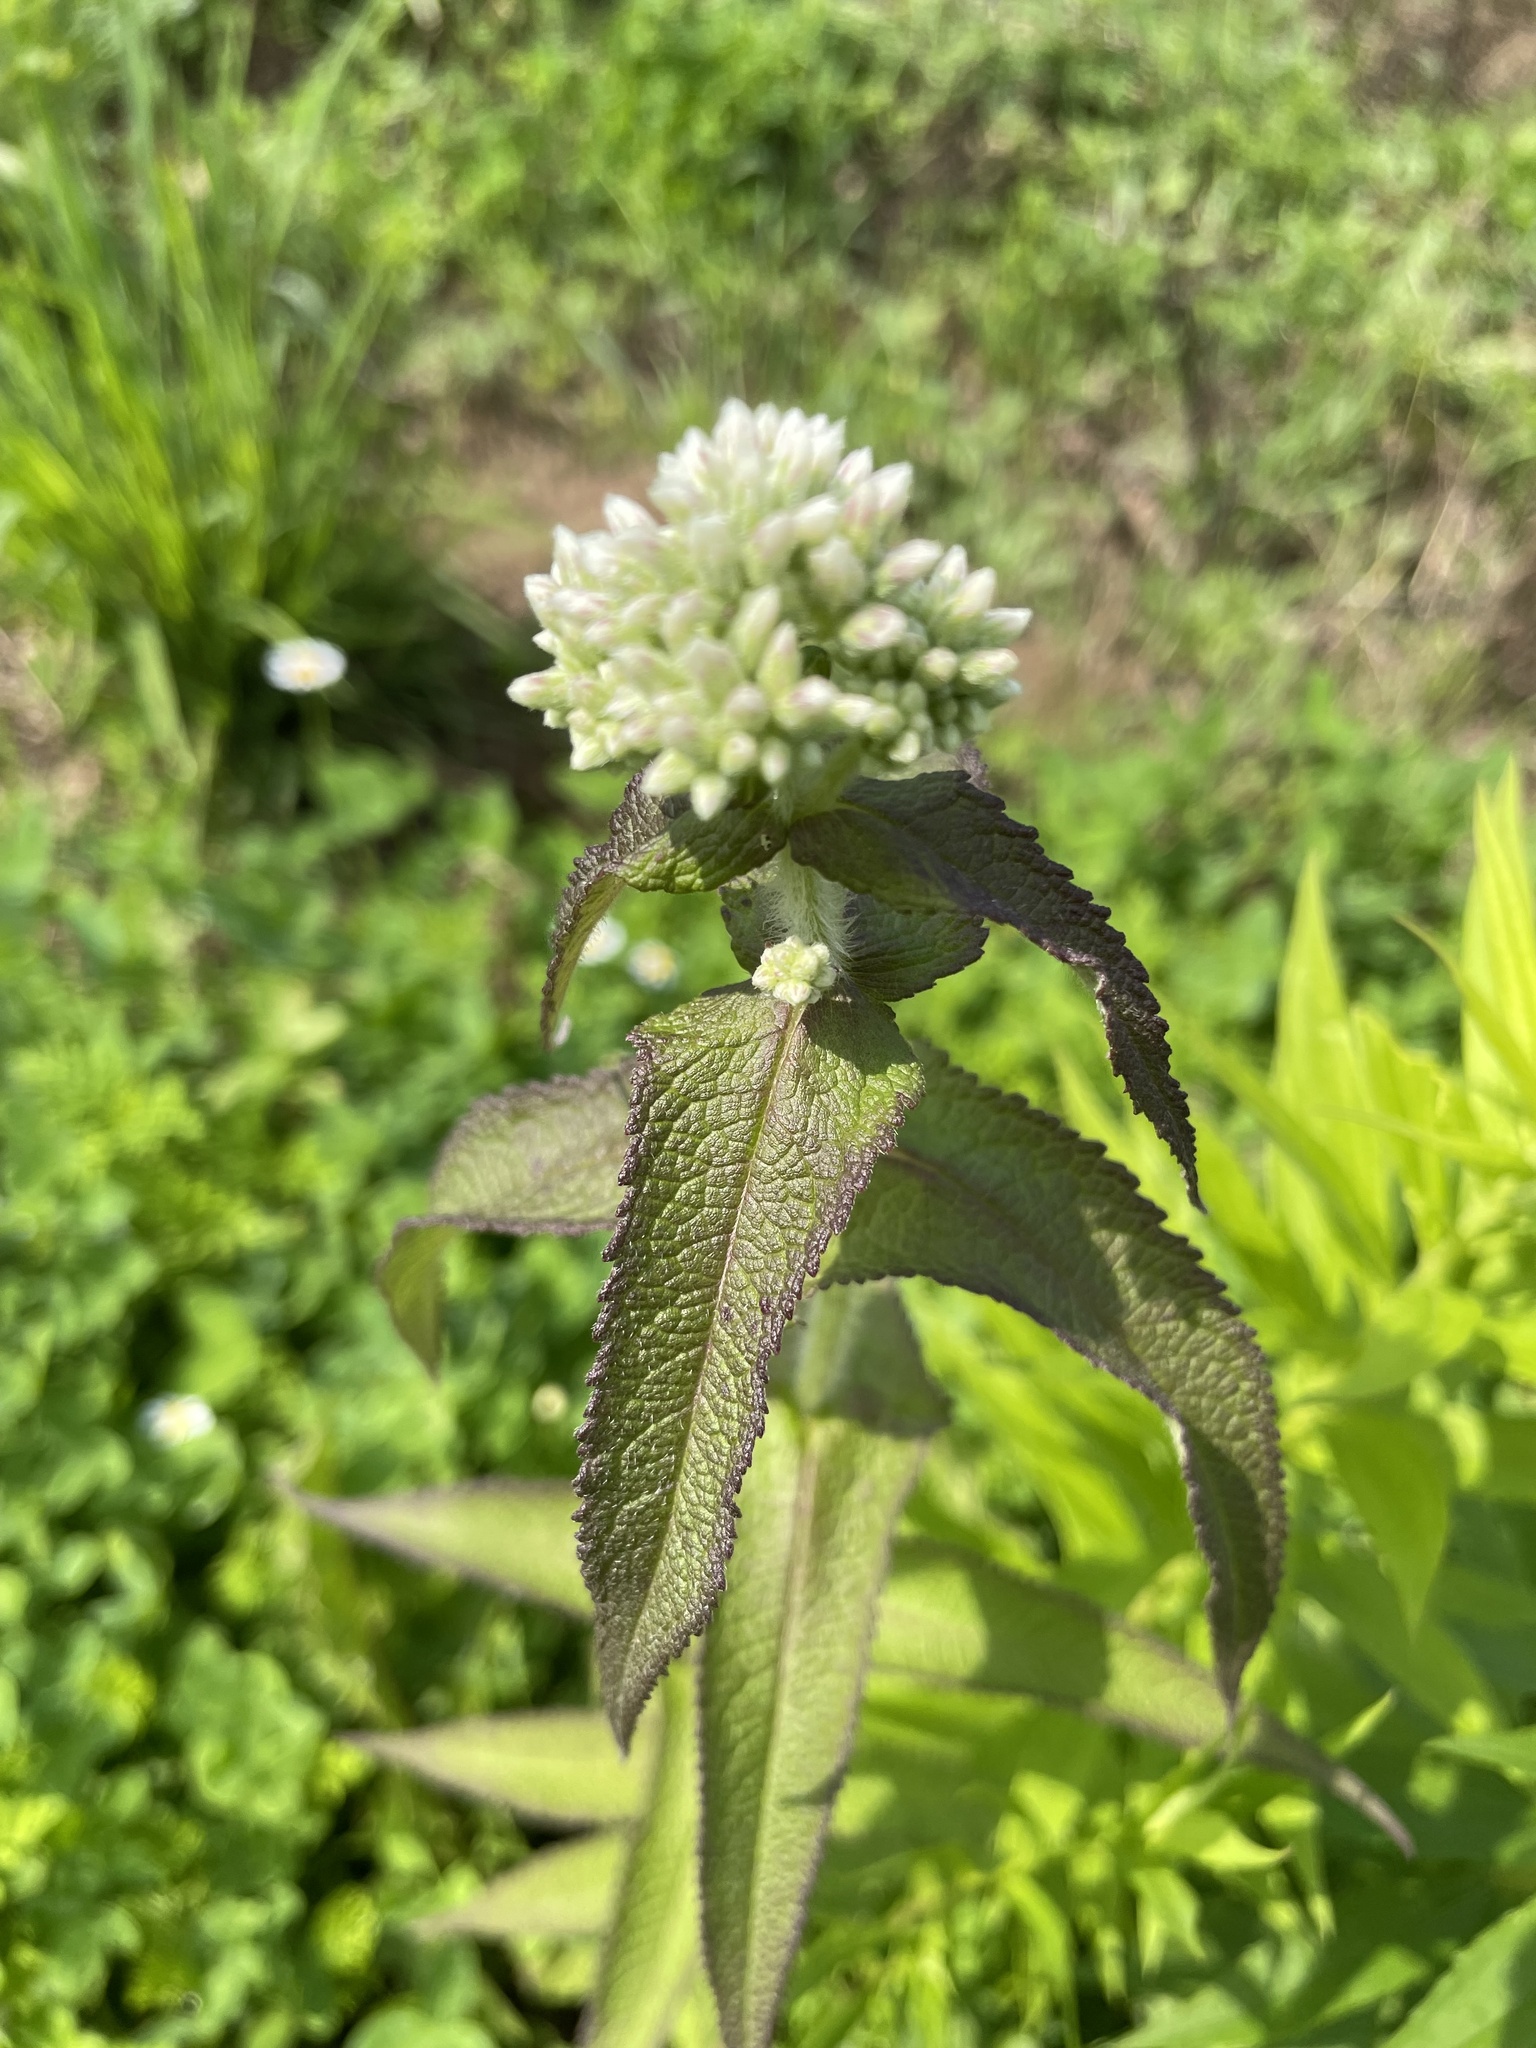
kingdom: Plantae
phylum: Tracheophyta
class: Magnoliopsida
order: Asterales
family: Asteraceae
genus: Eupatorium
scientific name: Eupatorium perfoliatum
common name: Boneset
